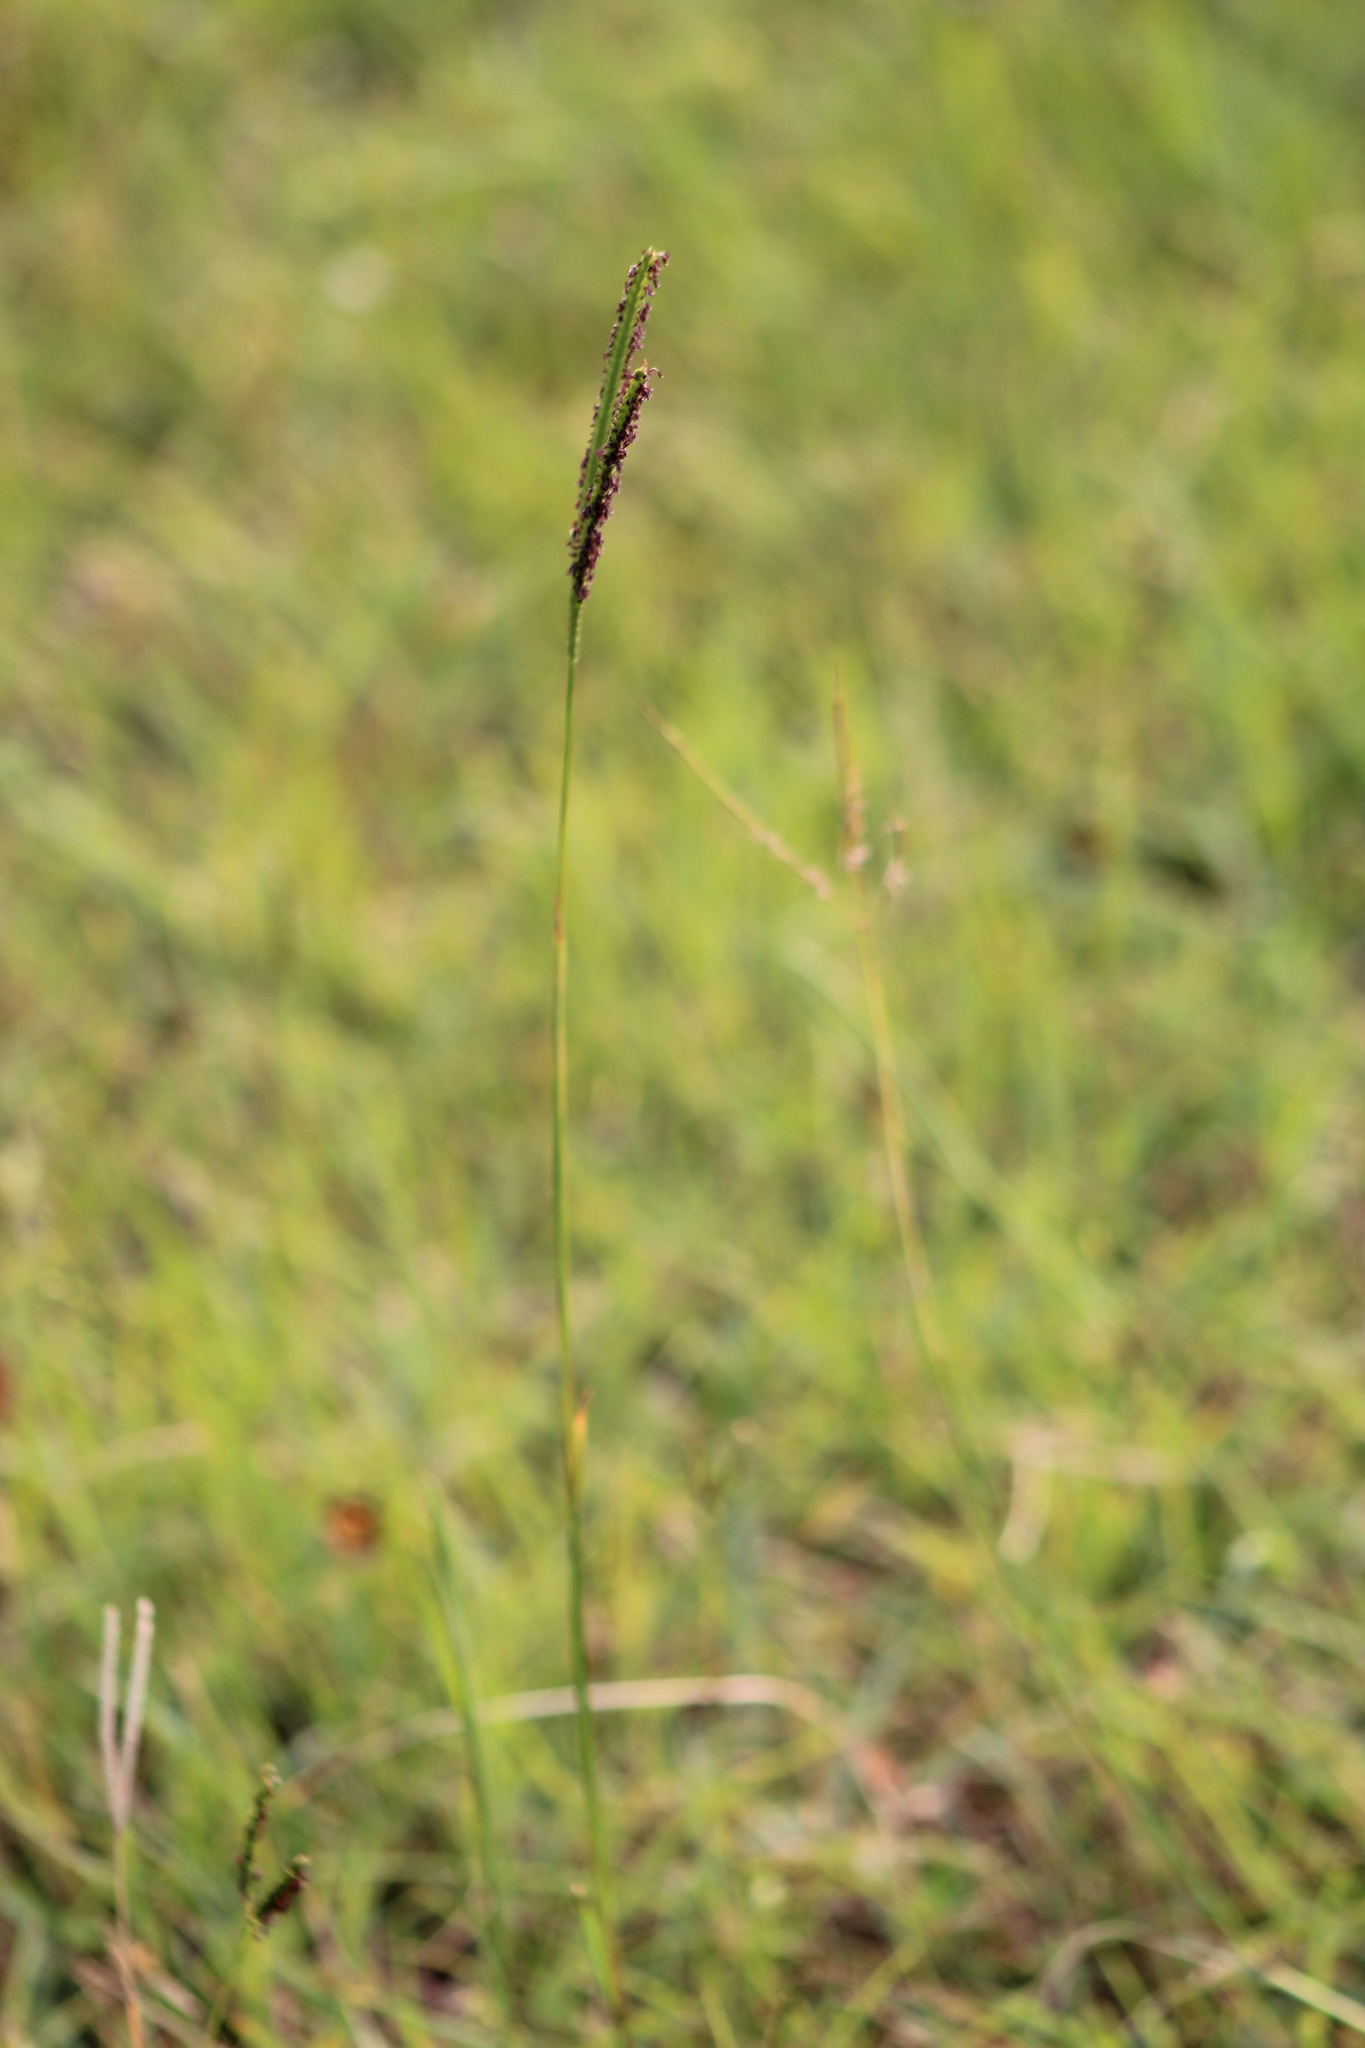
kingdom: Plantae
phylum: Tracheophyta
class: Liliopsida
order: Poales
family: Poaceae
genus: Paspalum
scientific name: Paspalum notatum
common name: Bahiagrass
